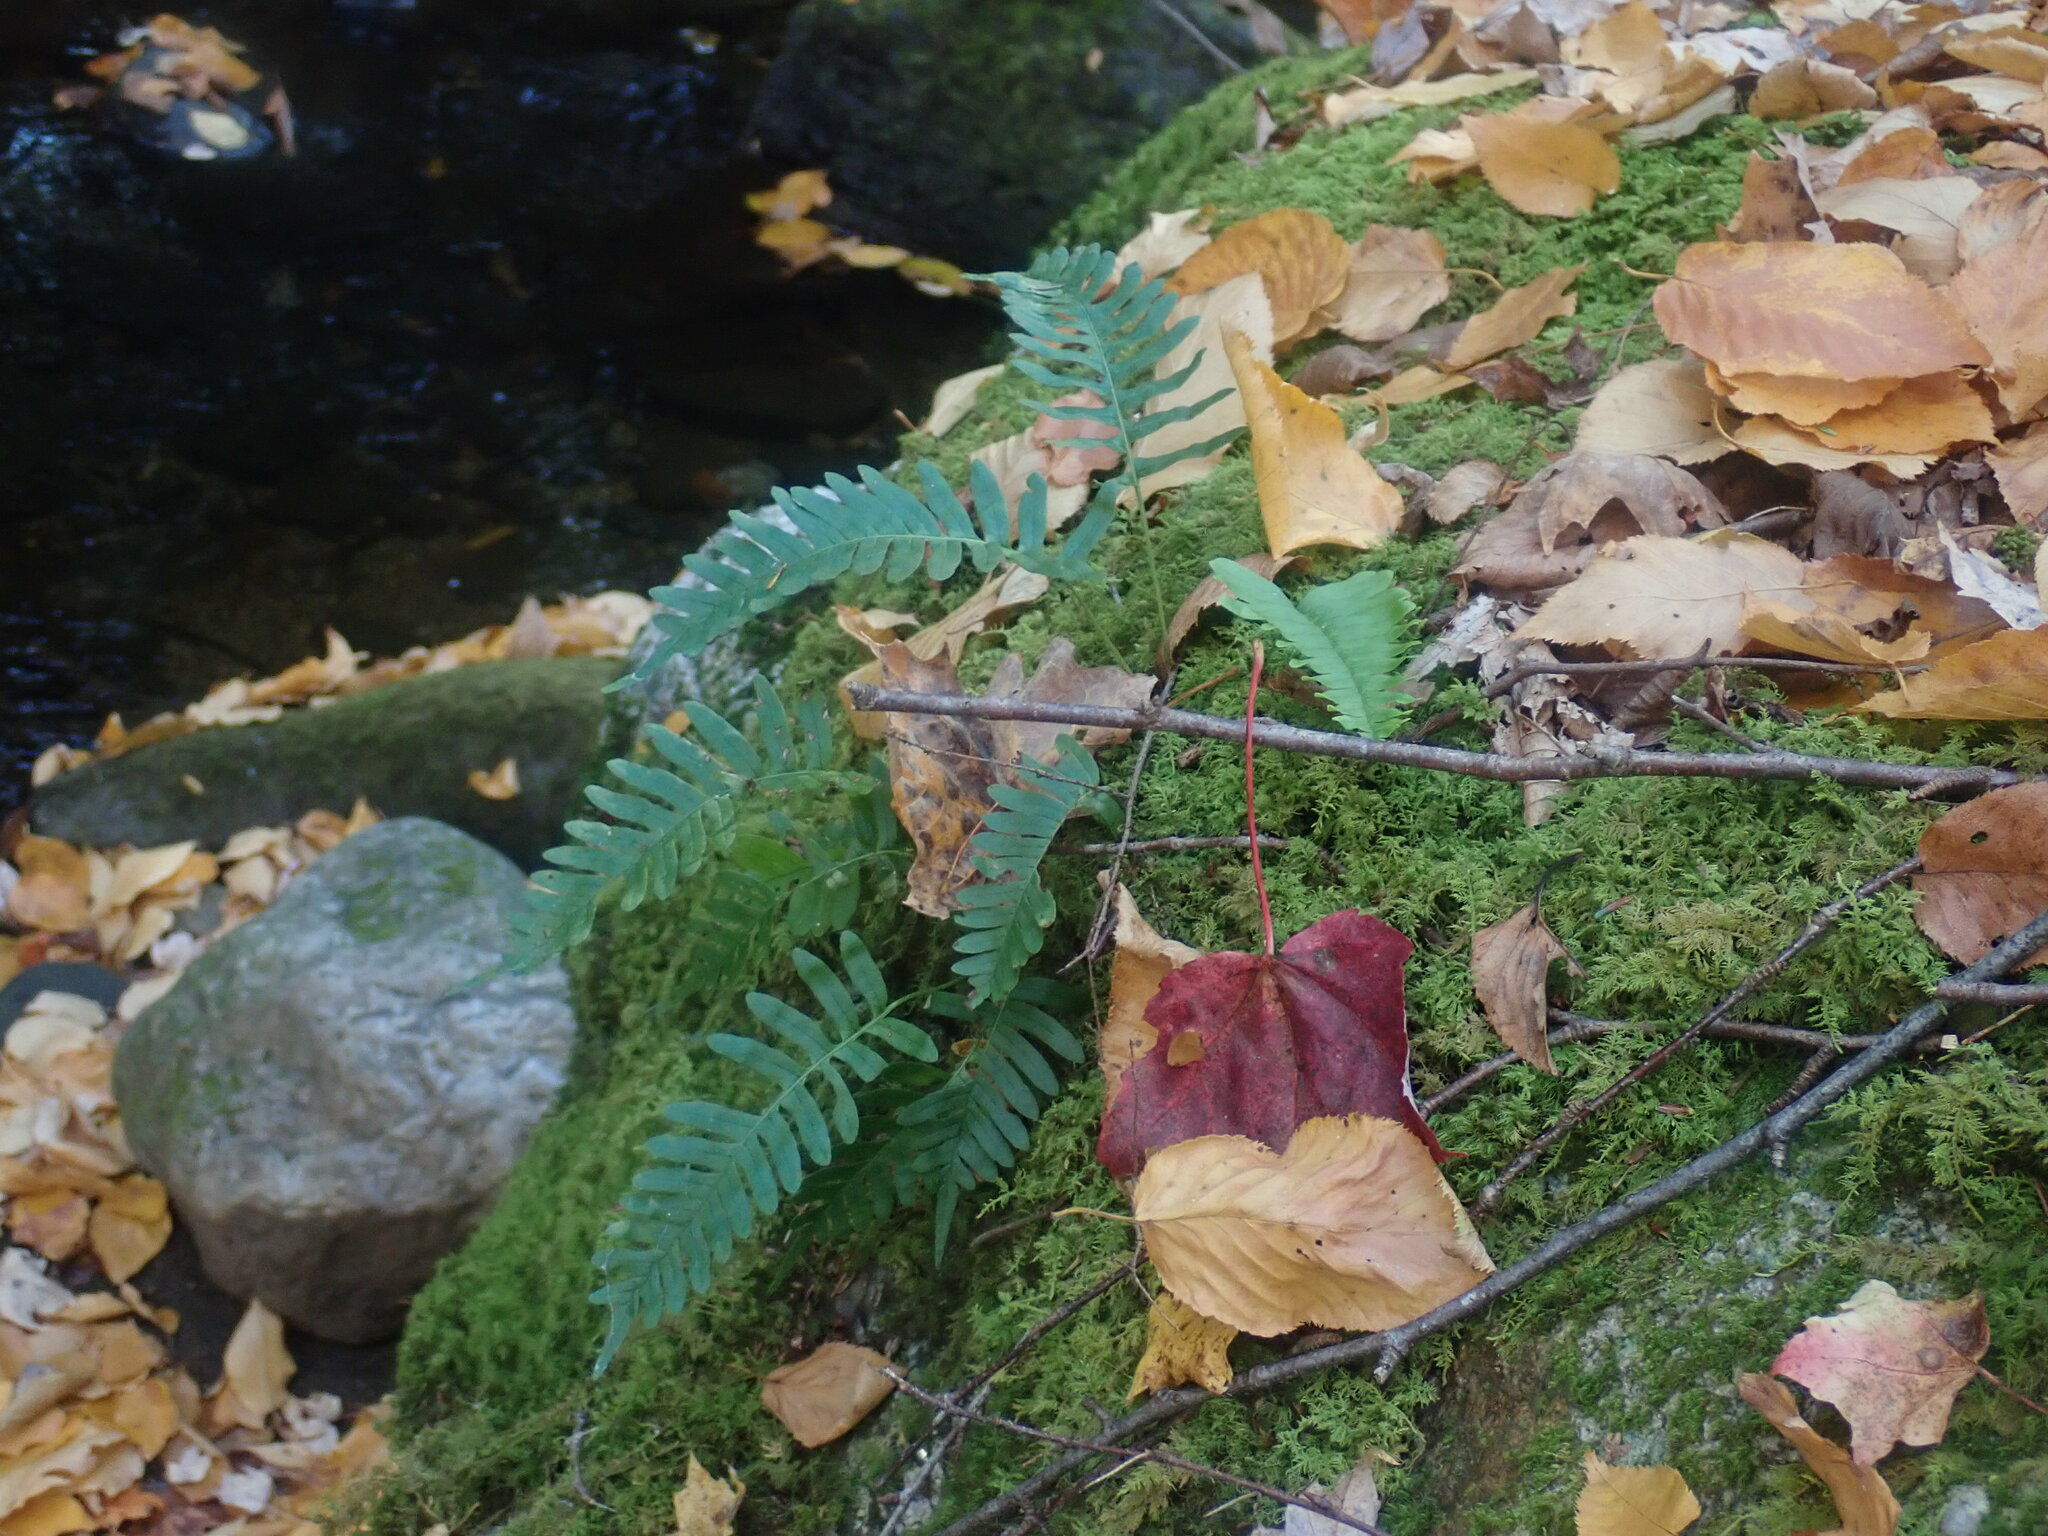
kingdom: Plantae
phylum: Tracheophyta
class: Polypodiopsida
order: Polypodiales
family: Polypodiaceae
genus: Polypodium
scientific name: Polypodium
